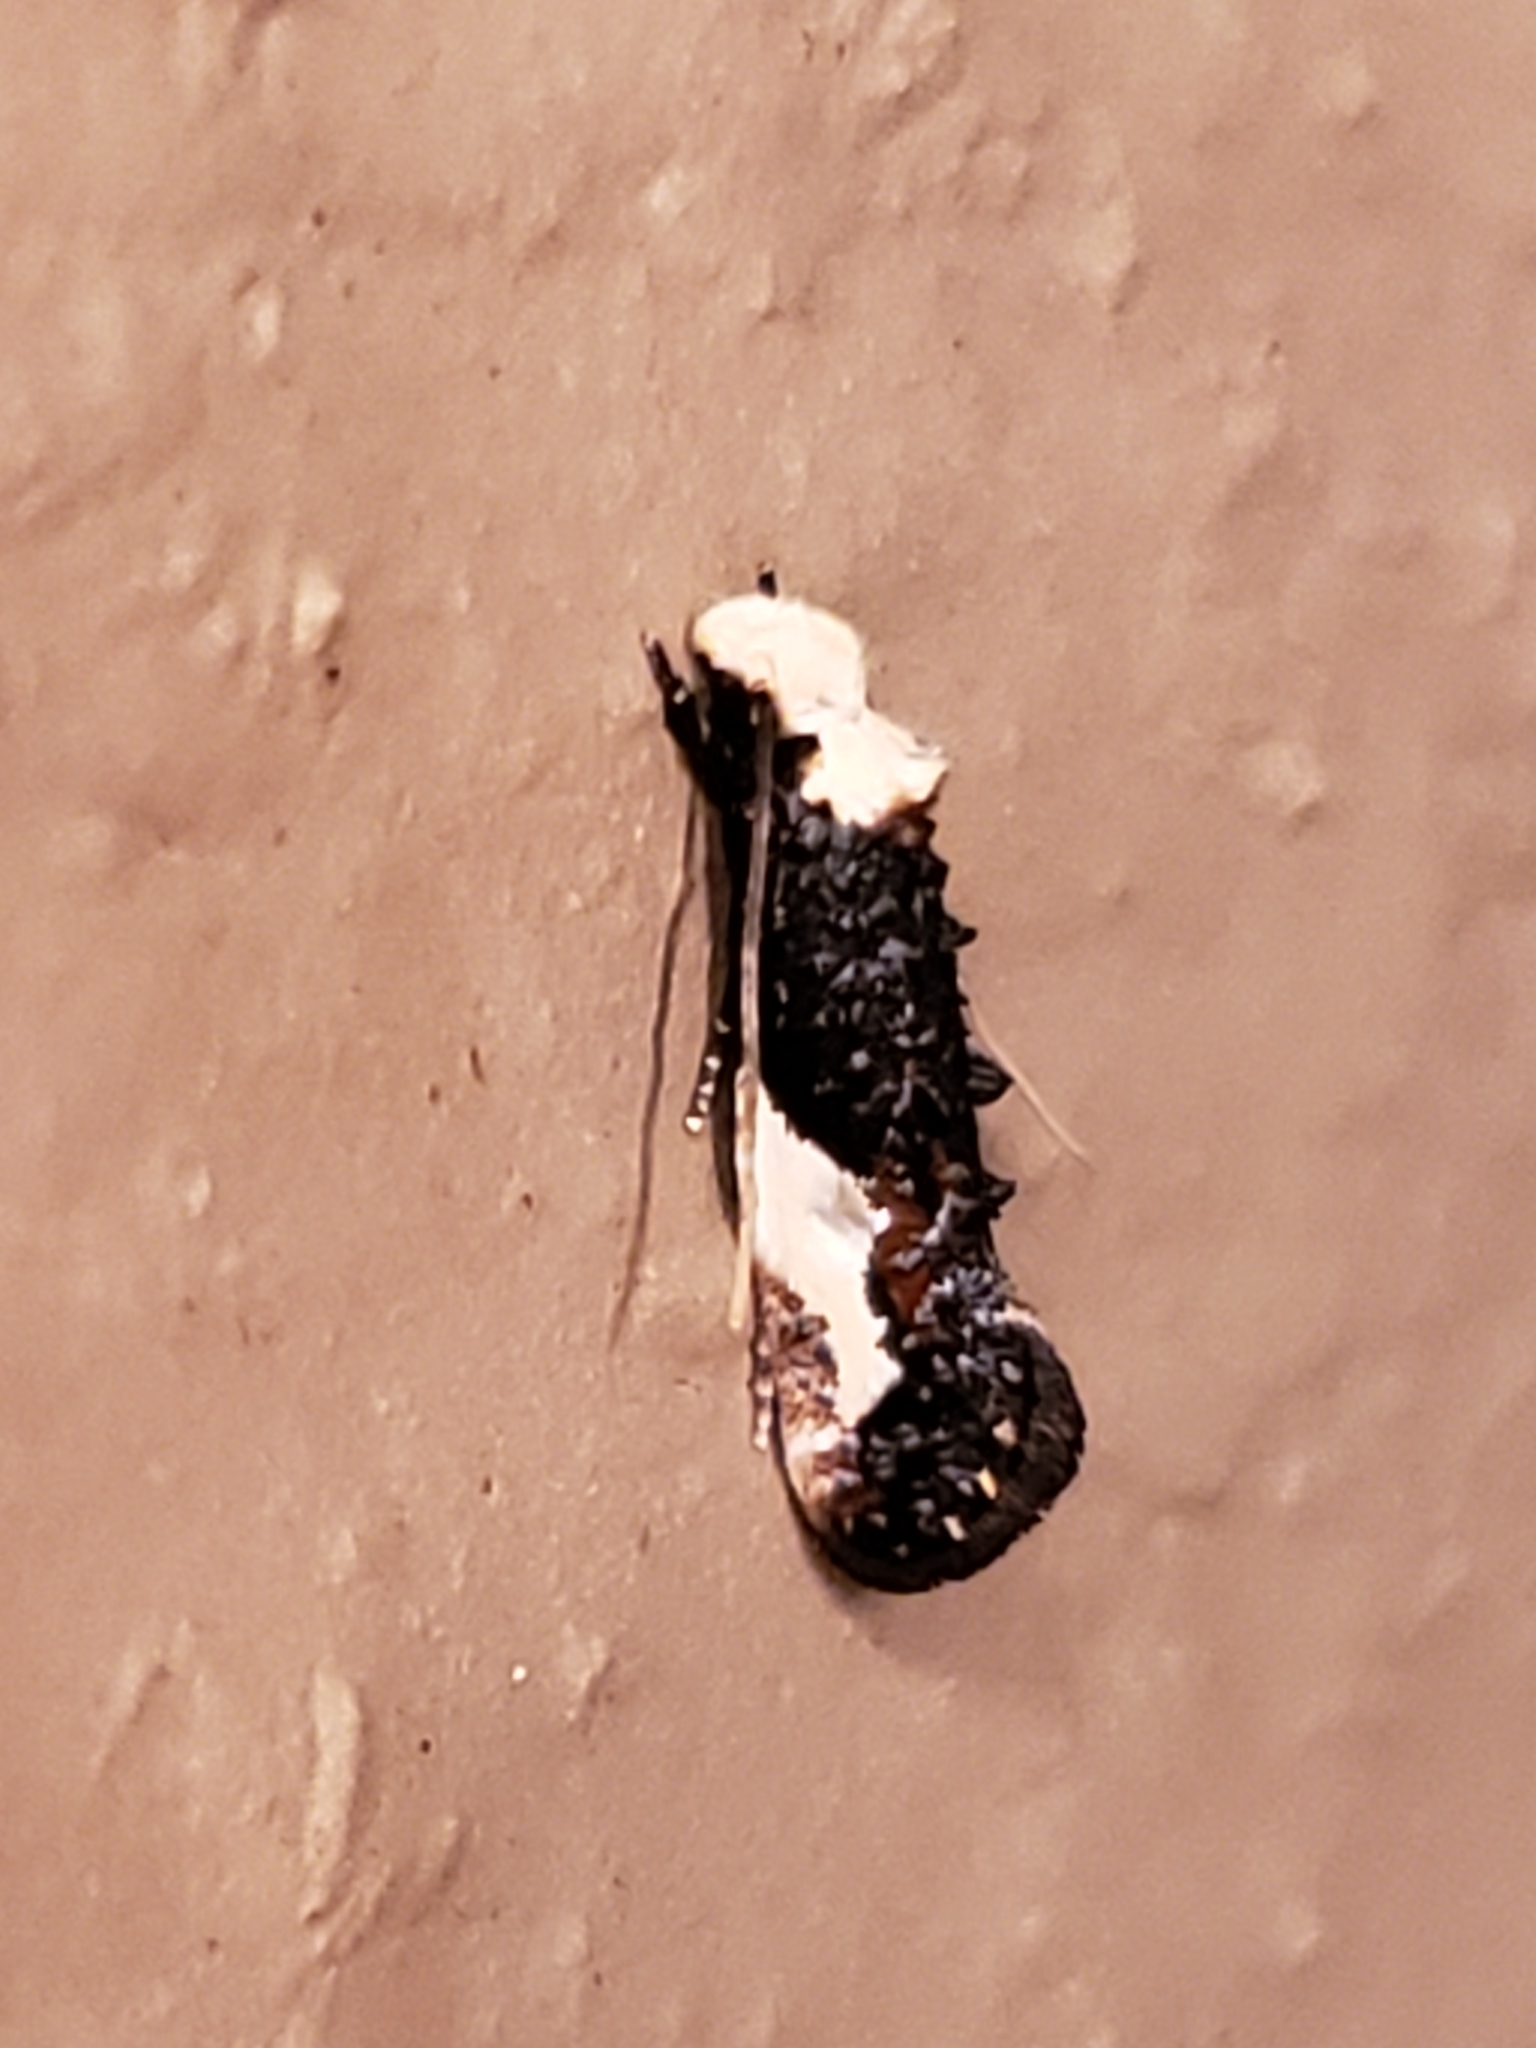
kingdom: Animalia
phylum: Arthropoda
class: Insecta
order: Lepidoptera
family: Tineidae
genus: Monopis
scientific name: Monopis longella
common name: Pavlovski's monopis moth
